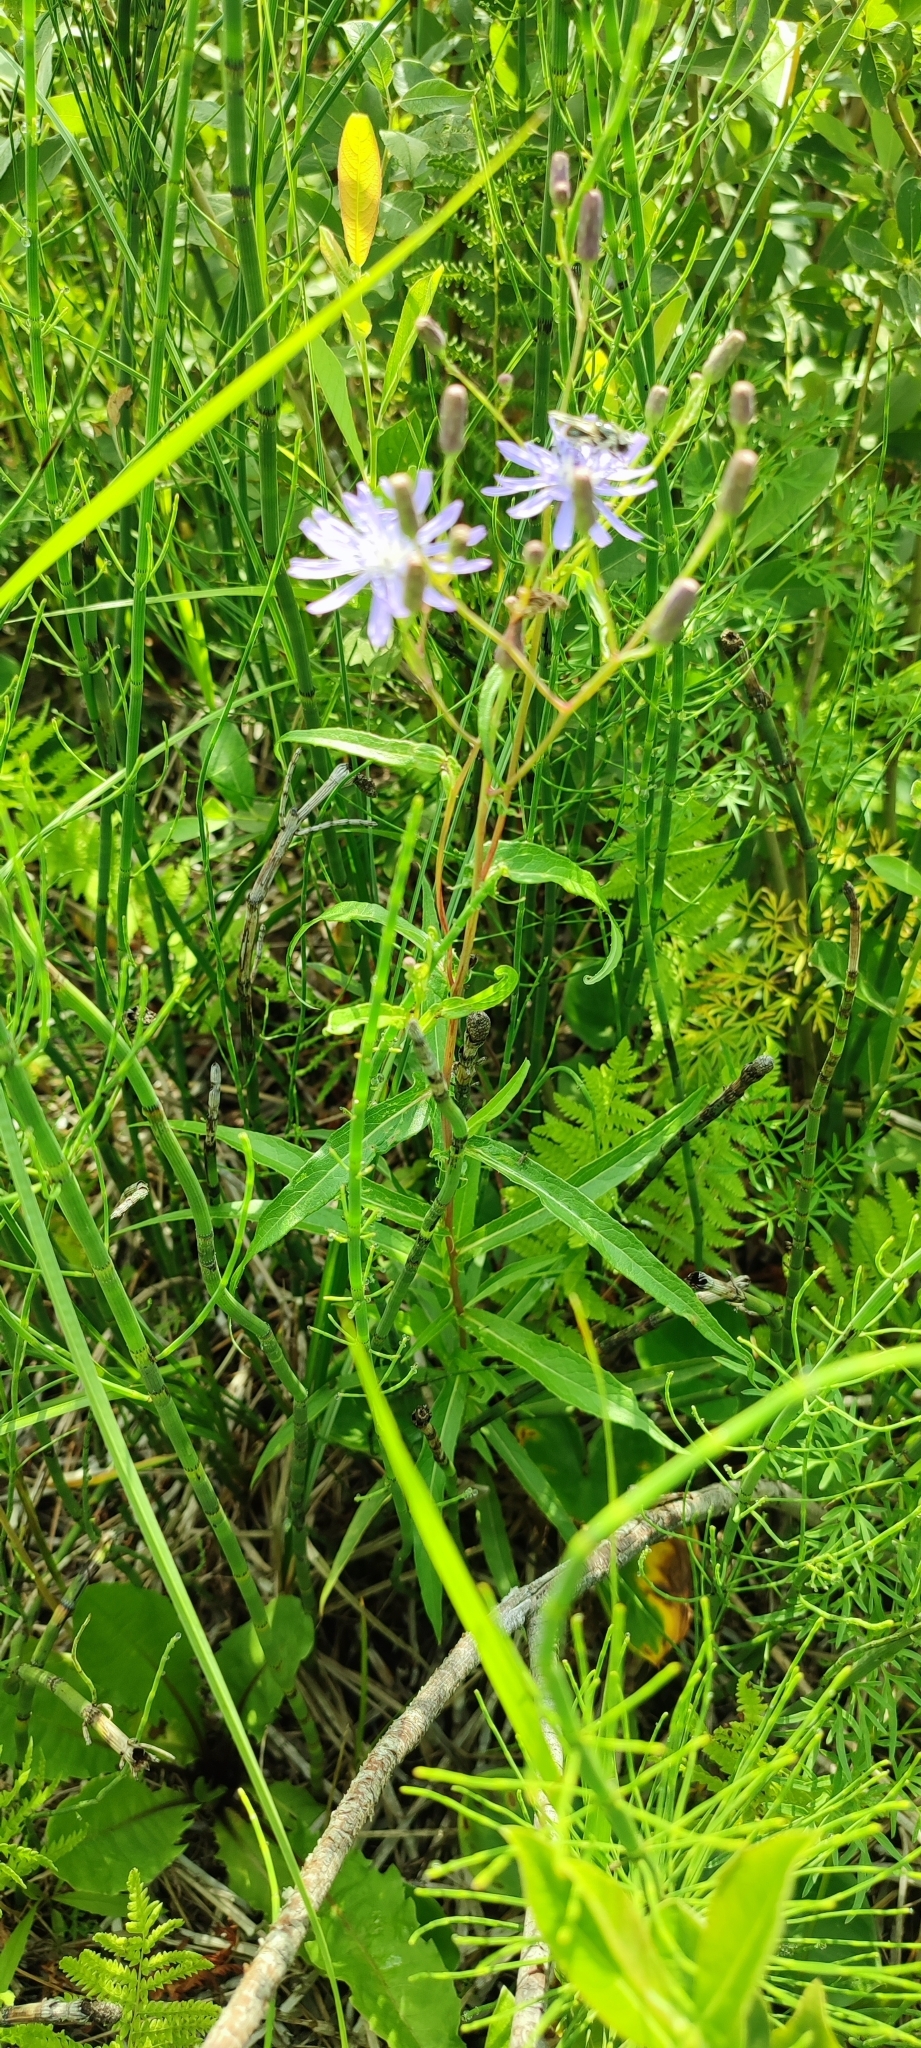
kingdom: Plantae
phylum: Tracheophyta
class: Magnoliopsida
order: Asterales
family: Asteraceae
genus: Lactuca
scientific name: Lactuca sibirica
